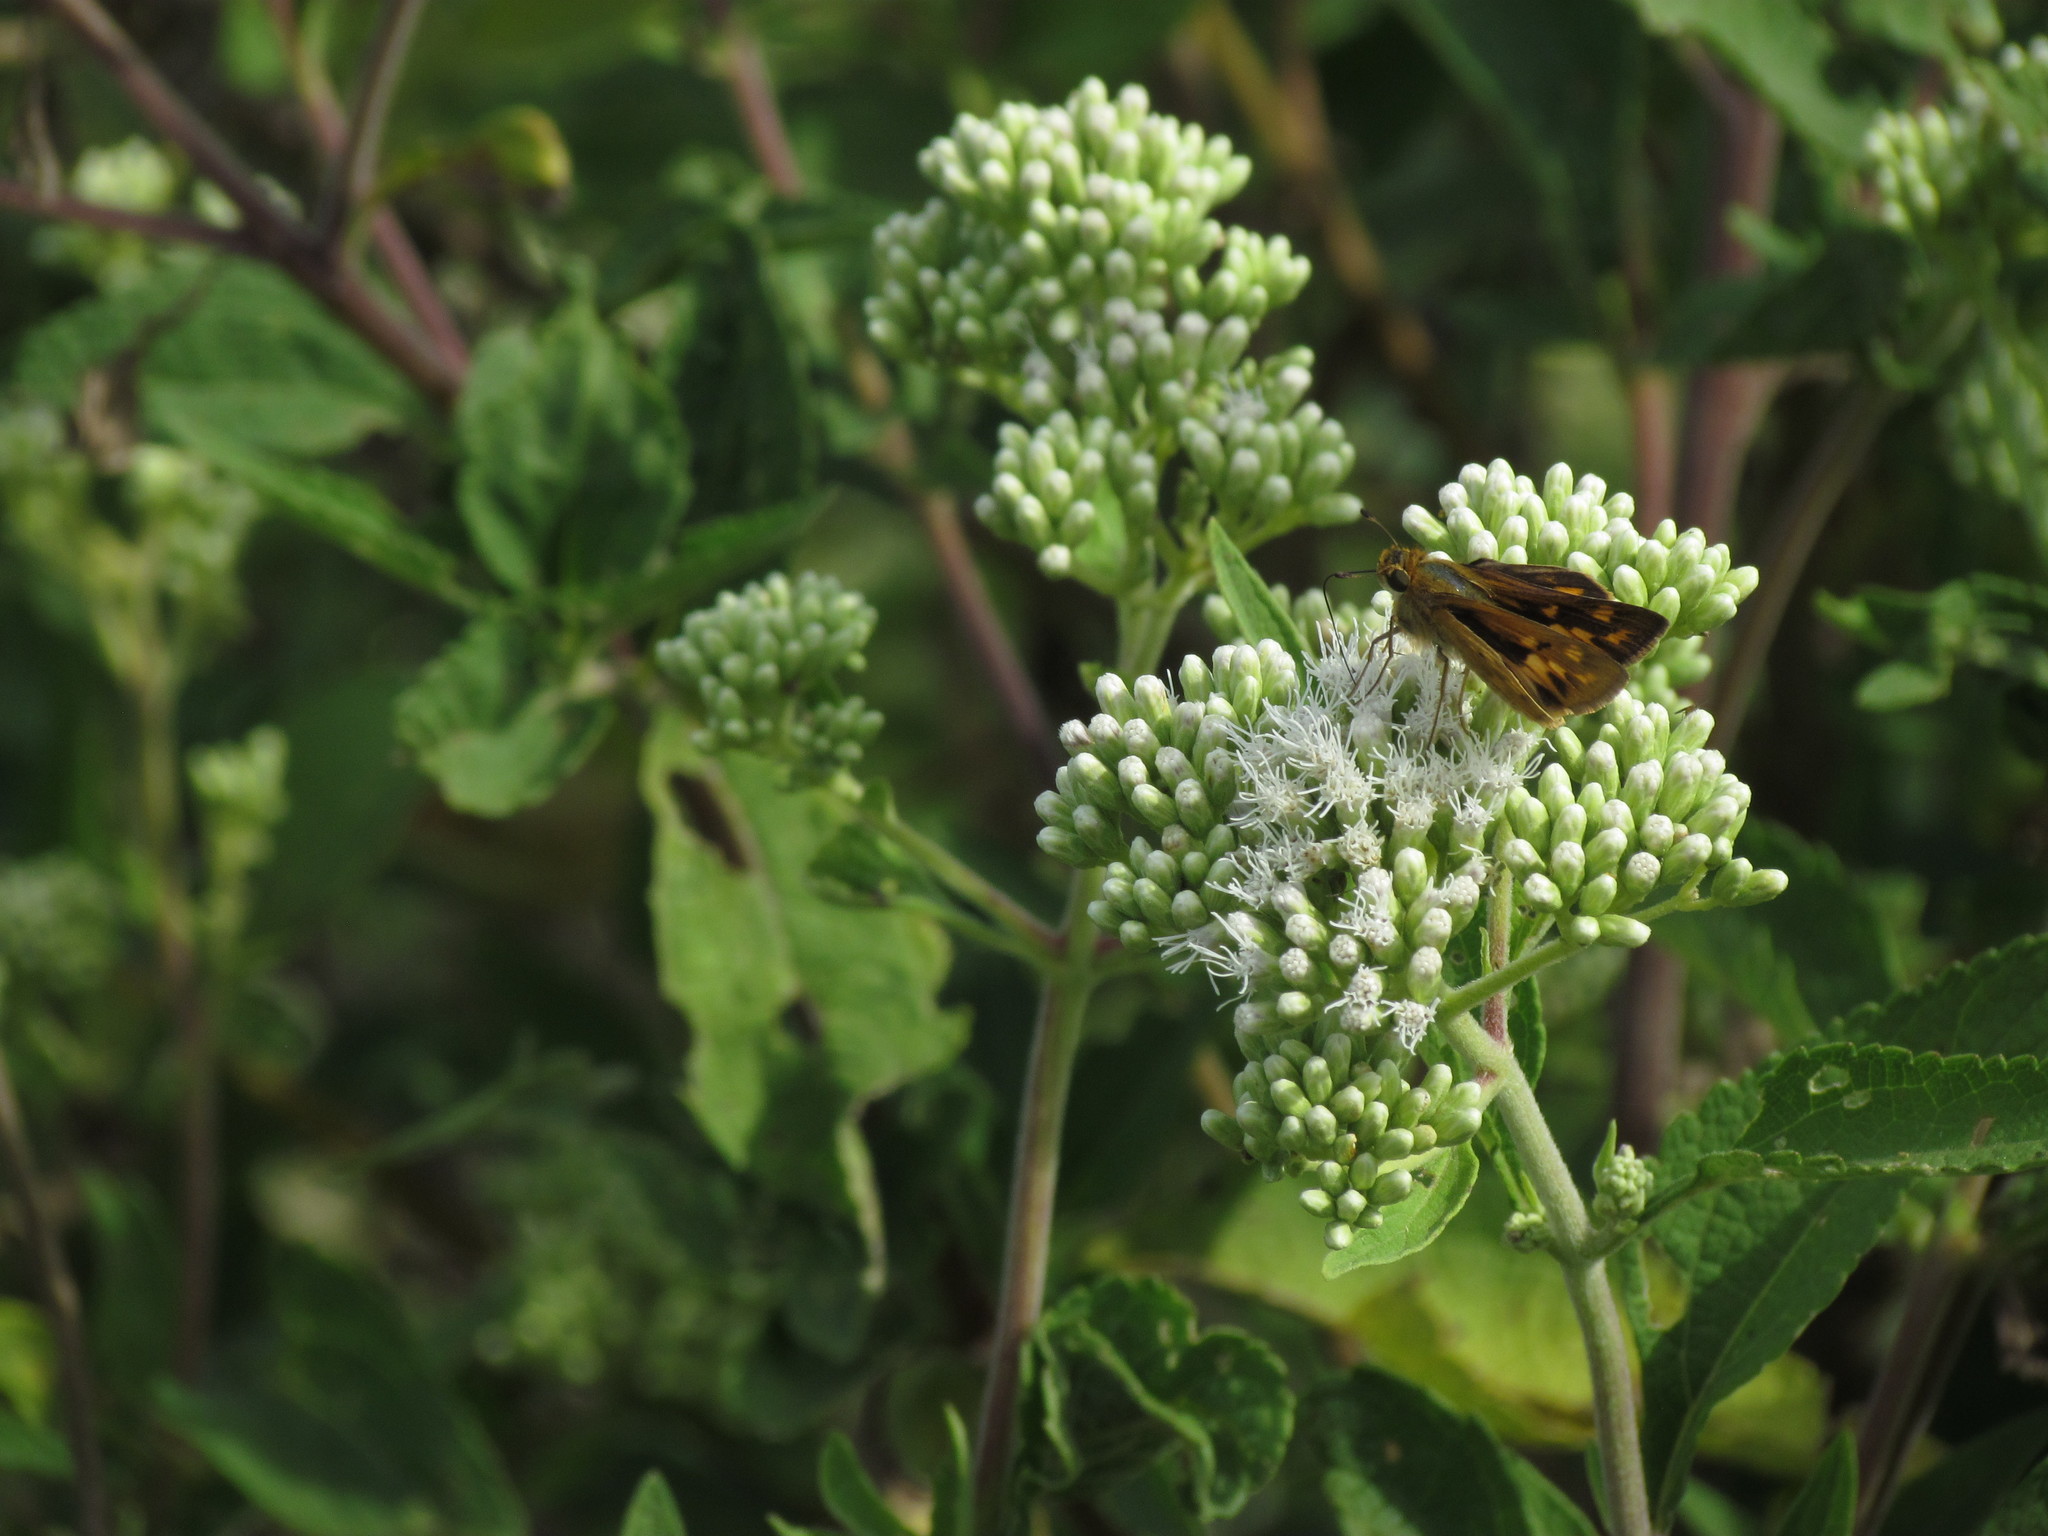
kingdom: Animalia
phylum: Arthropoda
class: Insecta
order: Lepidoptera
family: Hesperiidae
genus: Hylephila
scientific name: Hylephila phyleus
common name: Fiery skipper
